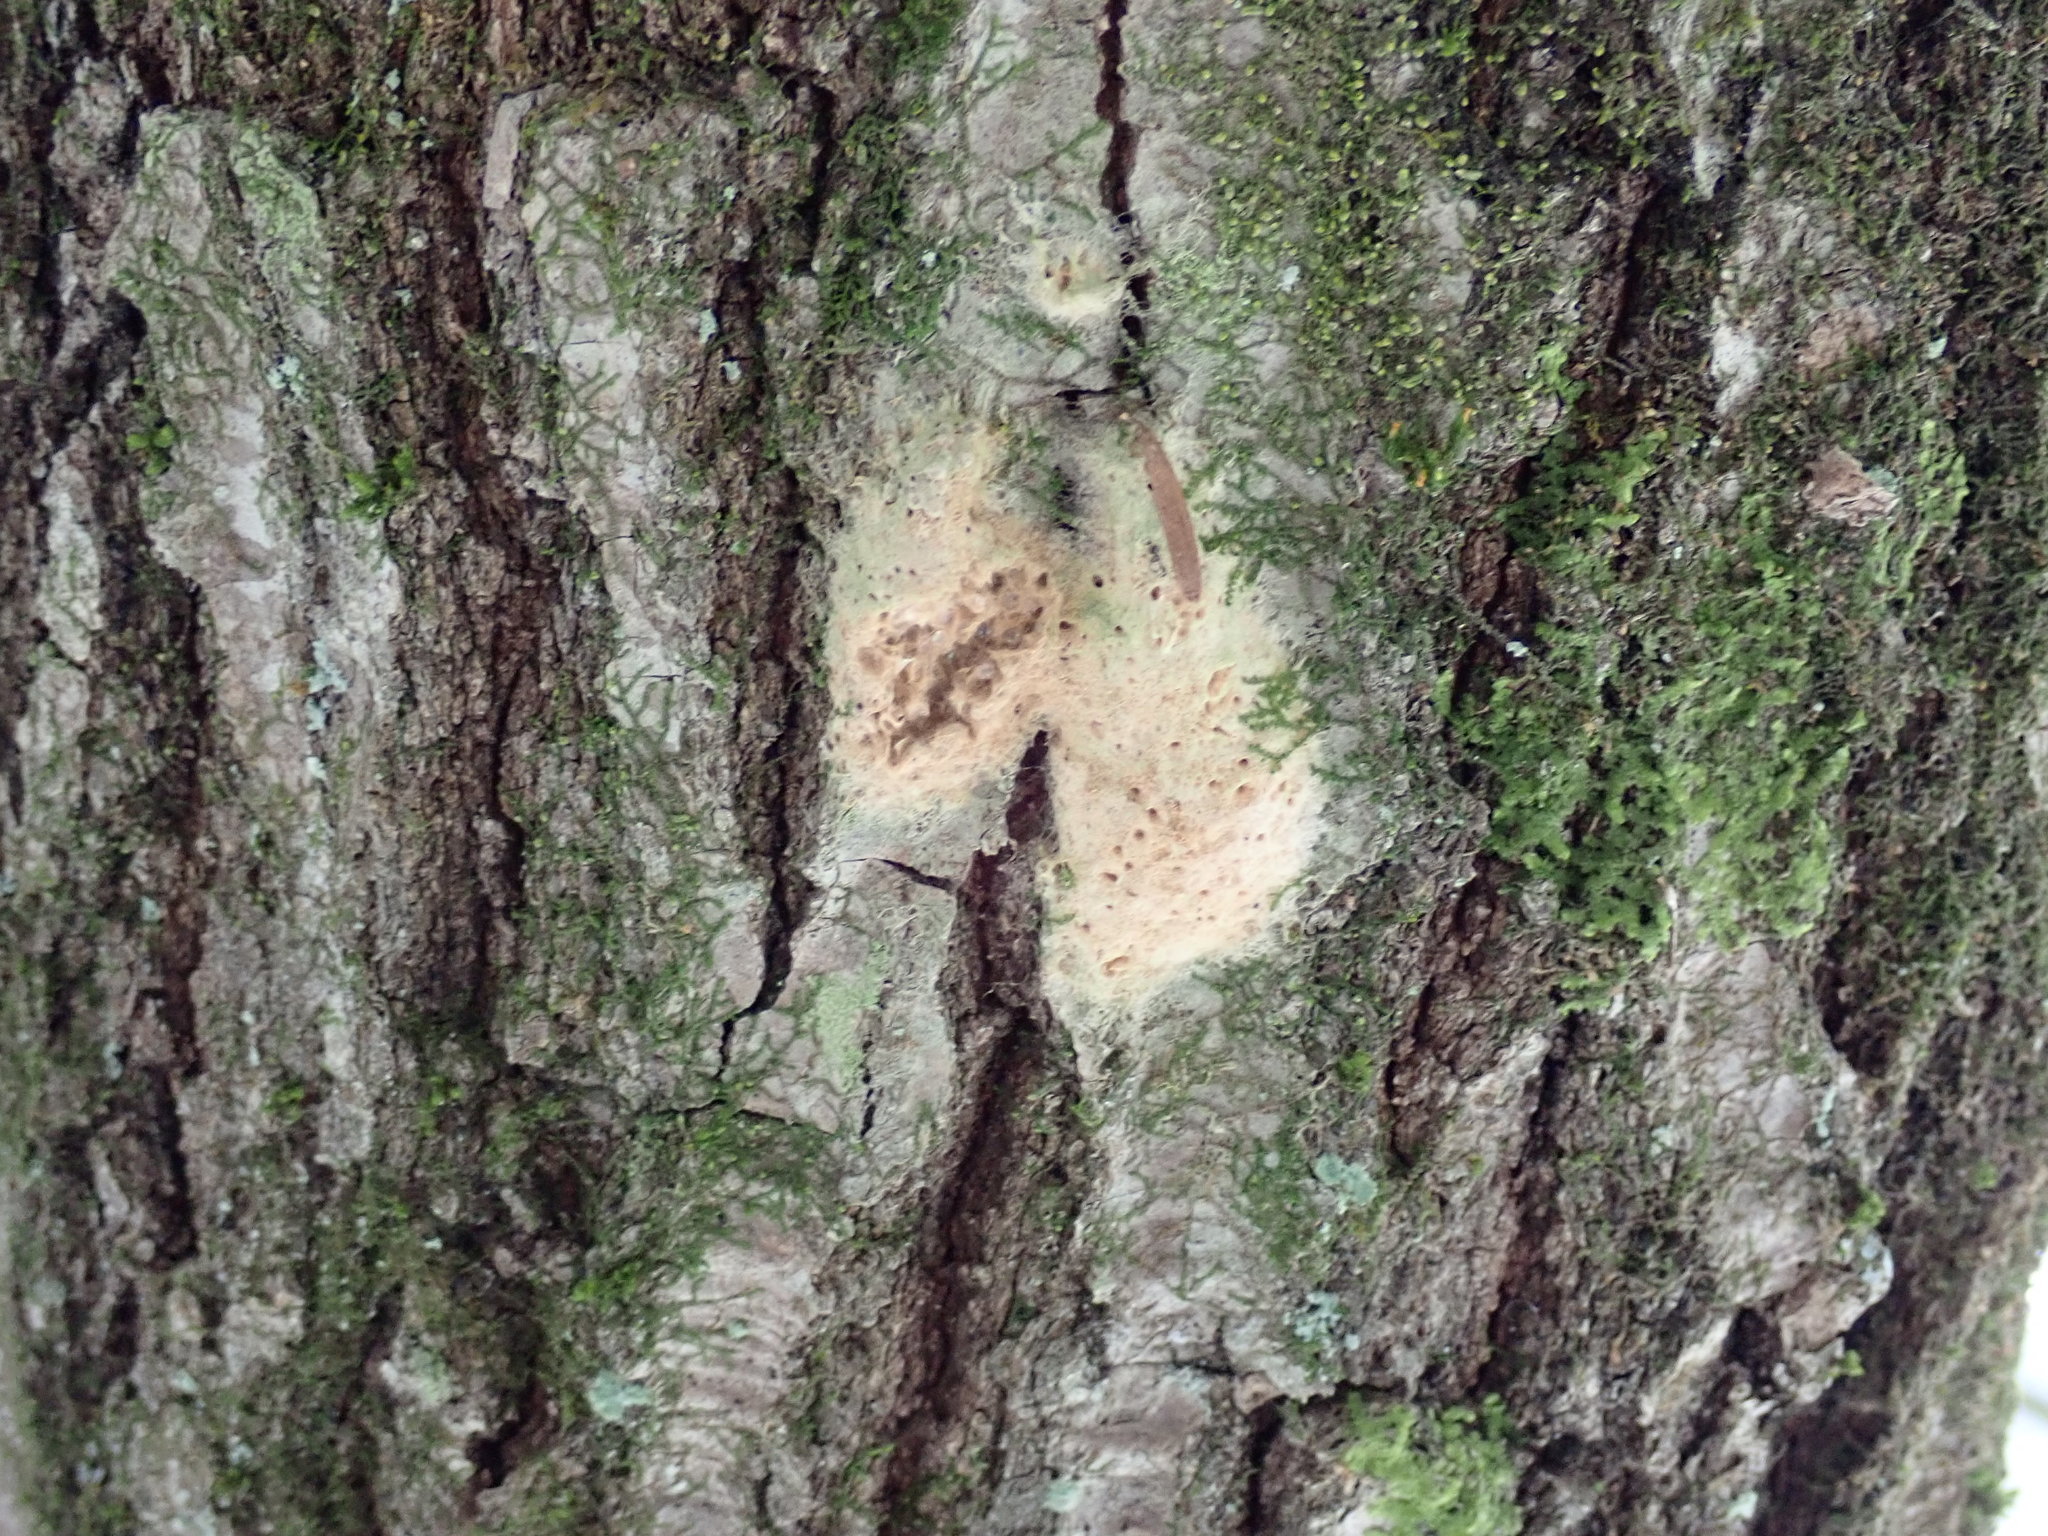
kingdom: Animalia
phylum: Arthropoda
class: Insecta
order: Lepidoptera
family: Erebidae
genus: Lymantria
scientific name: Lymantria dispar
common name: Gypsy moth
